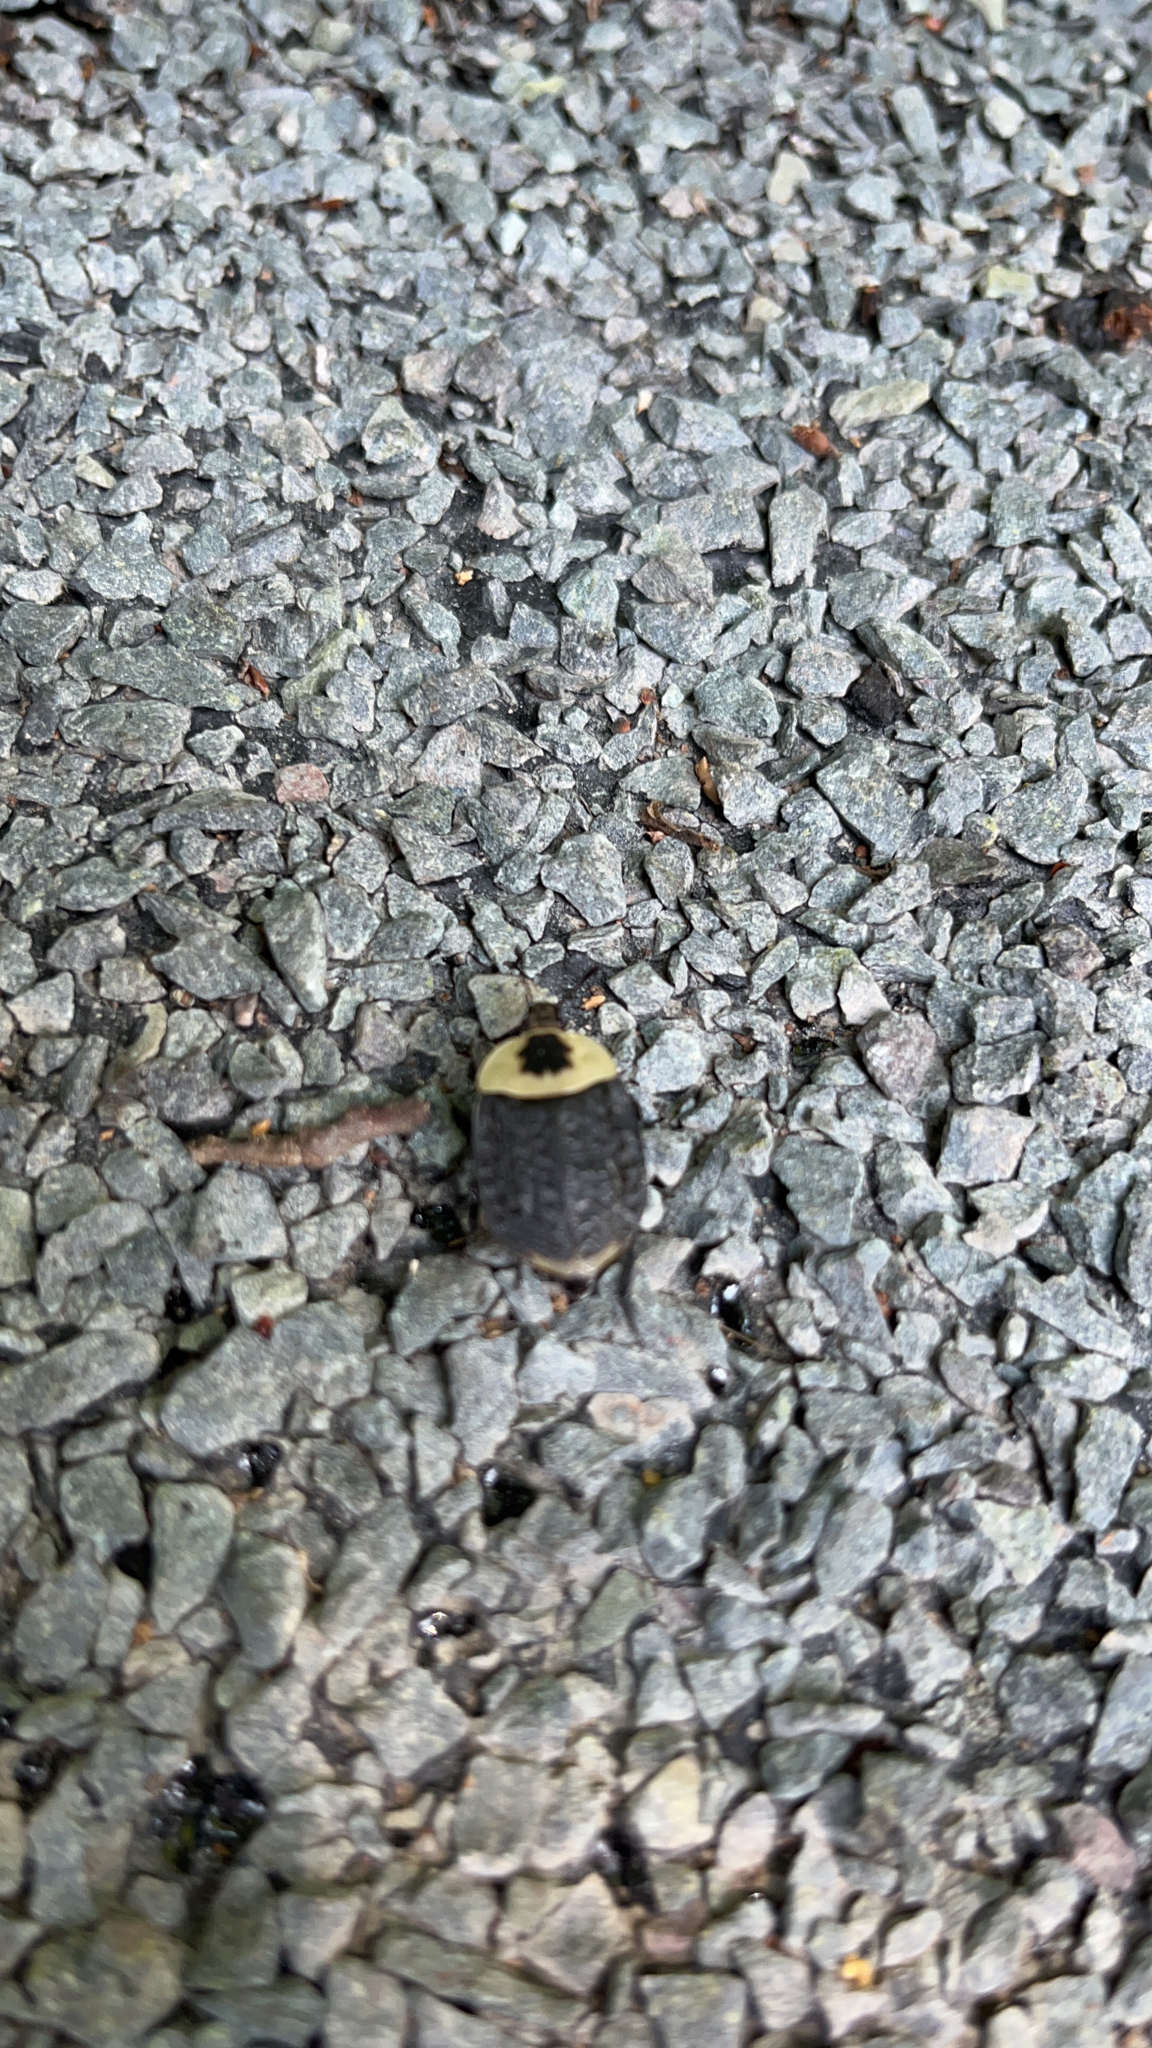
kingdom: Animalia
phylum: Arthropoda
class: Insecta
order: Coleoptera
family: Staphylinidae
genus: Necrophila
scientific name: Necrophila americana
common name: American carrion beetle
